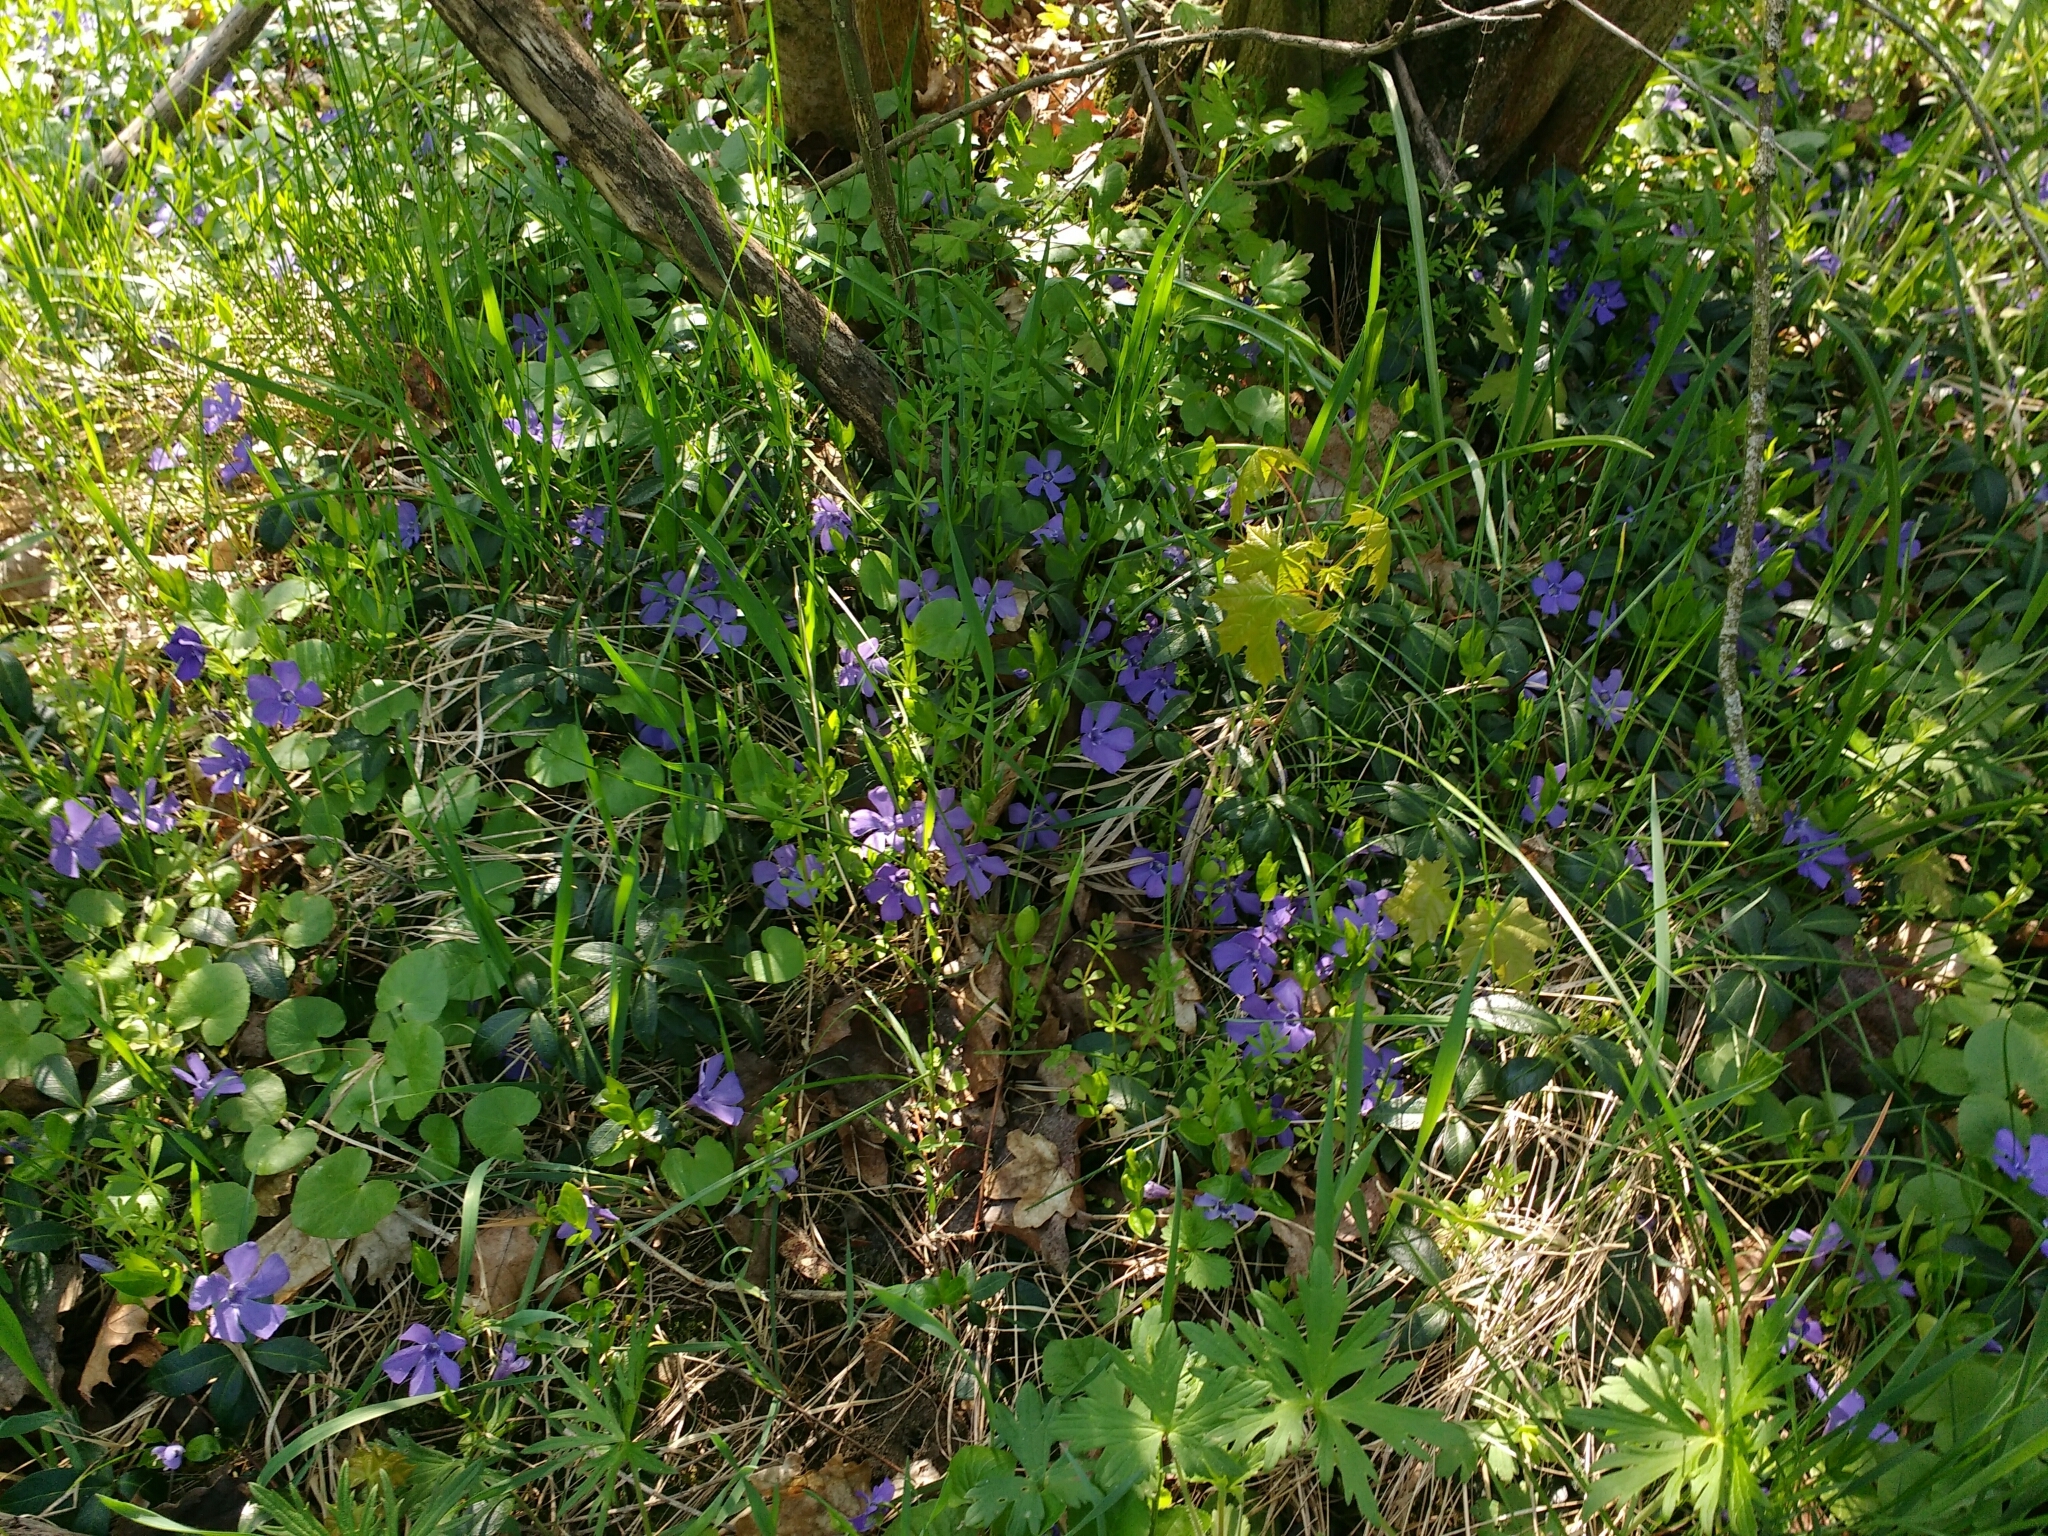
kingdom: Plantae
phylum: Tracheophyta
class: Magnoliopsida
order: Gentianales
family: Apocynaceae
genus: Vinca
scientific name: Vinca minor
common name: Lesser periwinkle
